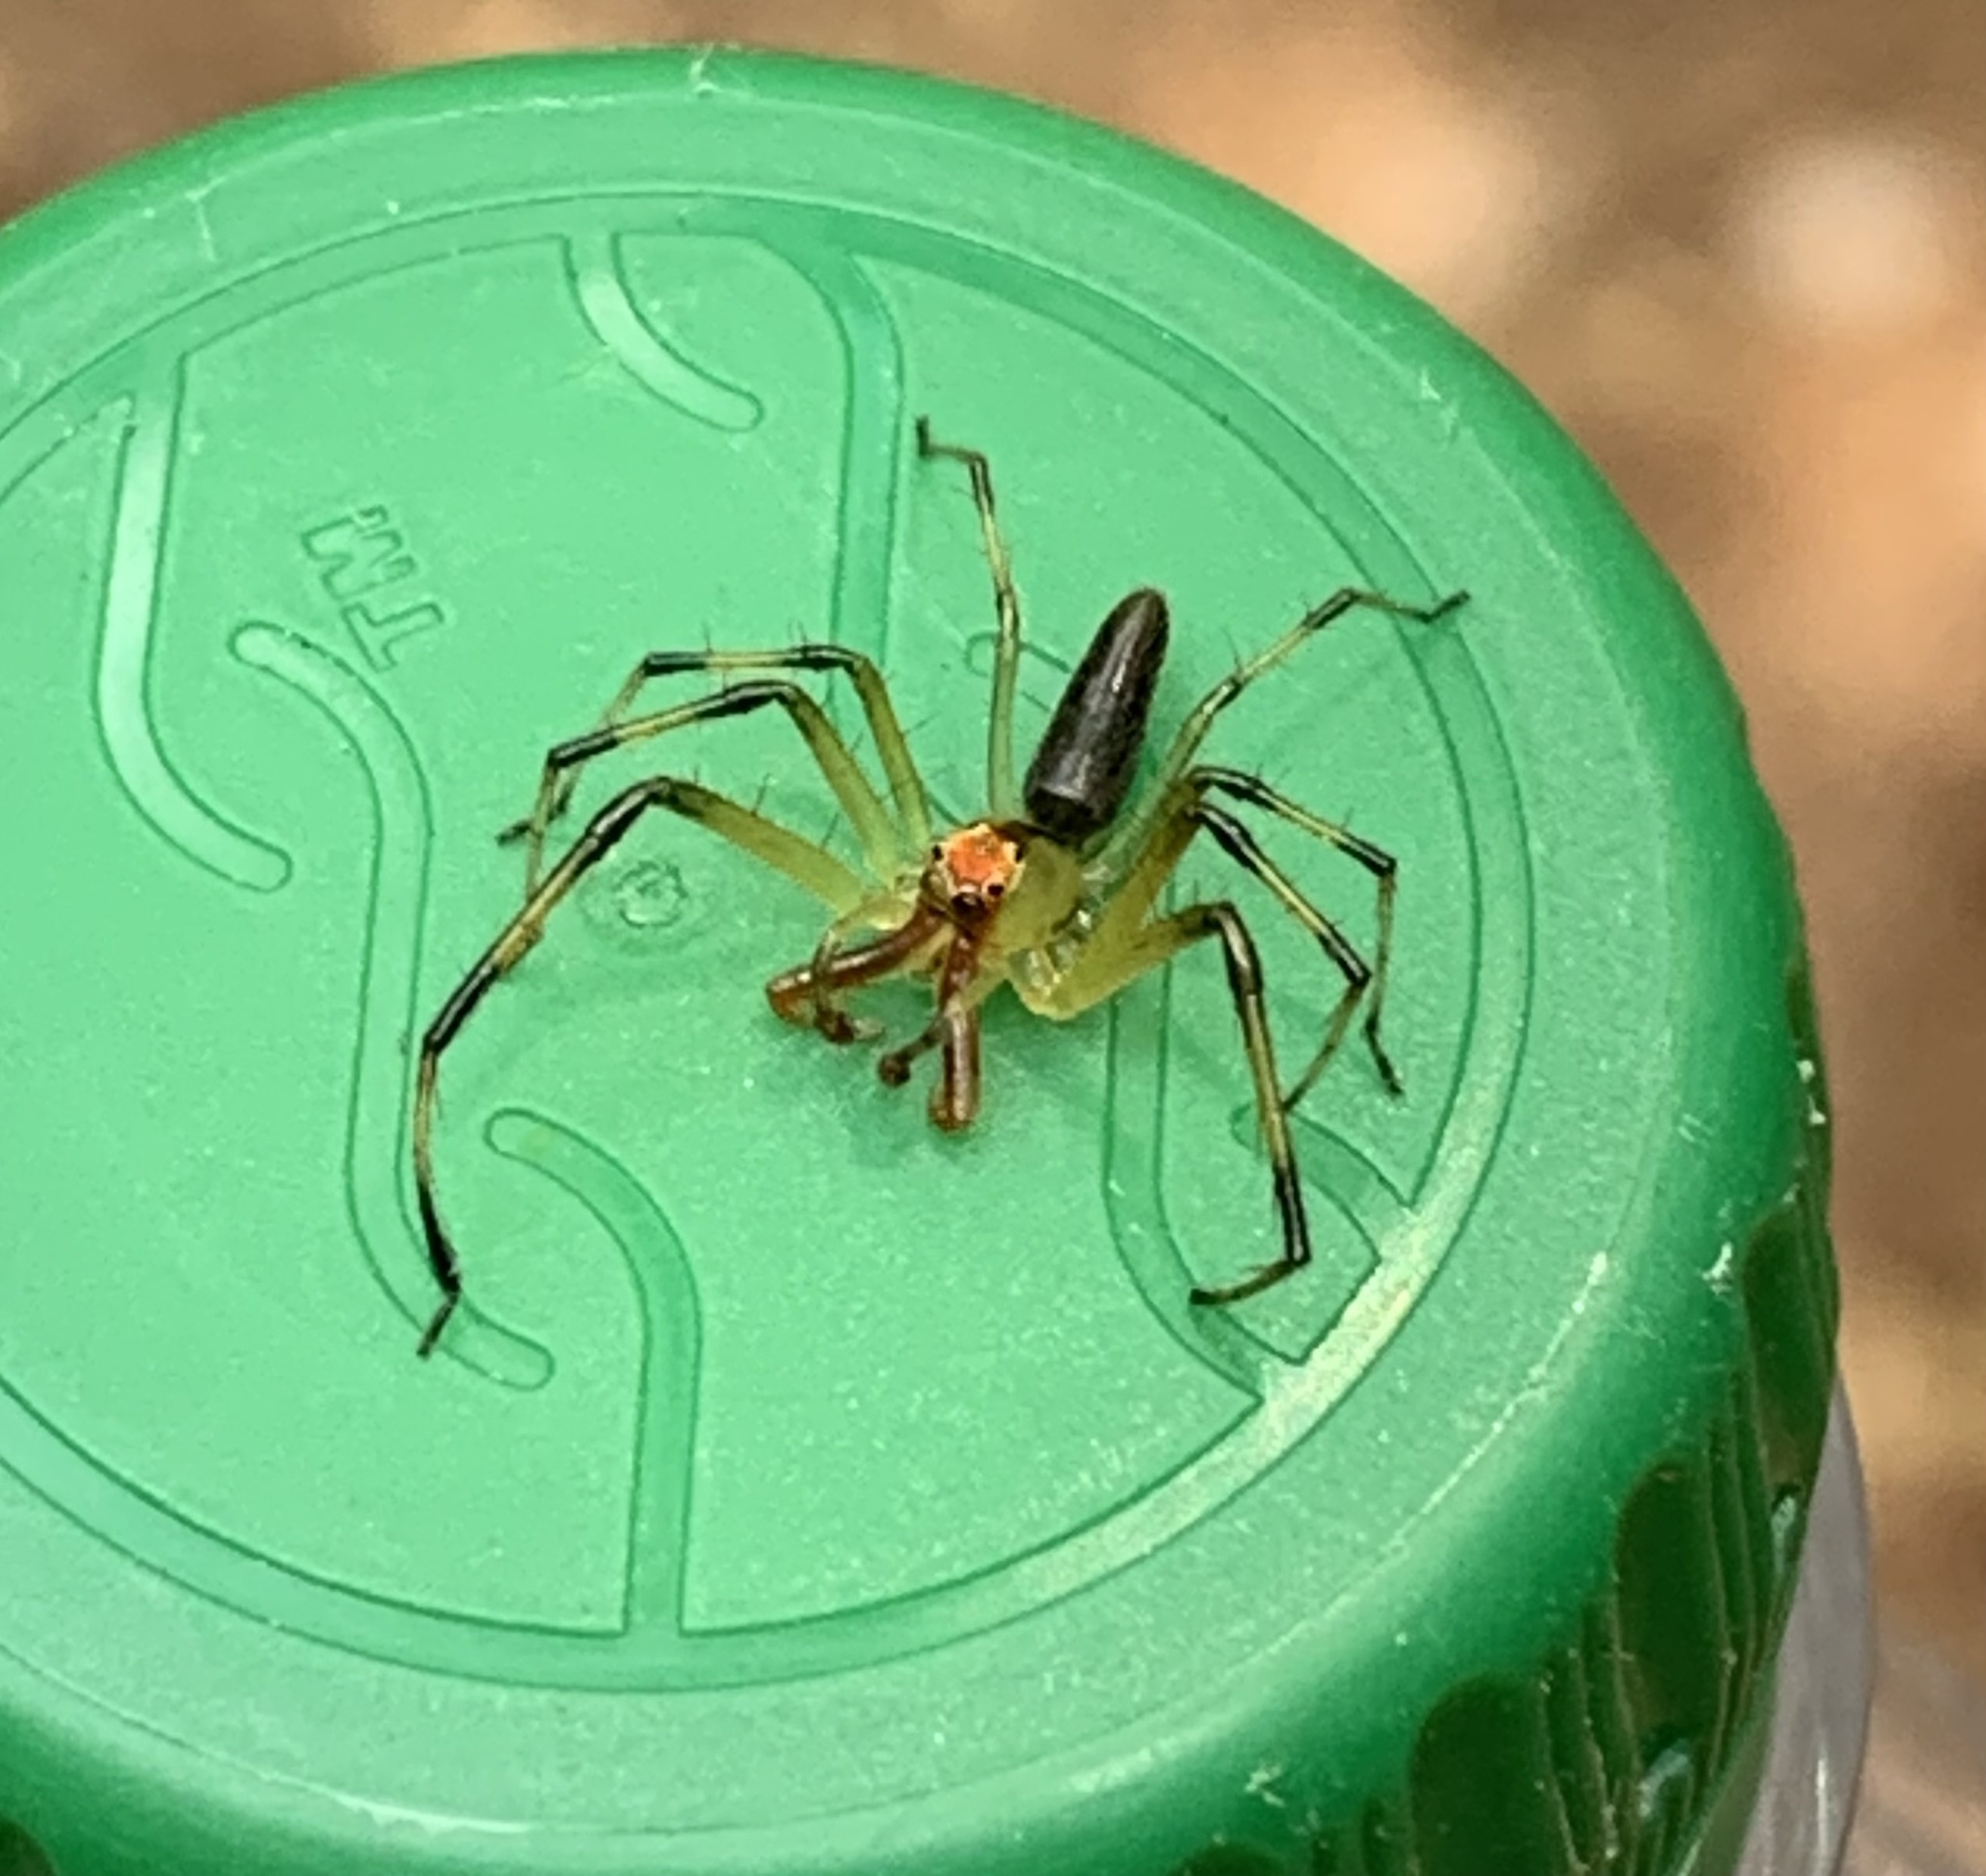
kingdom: Animalia
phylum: Arthropoda
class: Arachnida
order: Araneae
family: Salticidae
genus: Lyssomanes
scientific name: Lyssomanes viridis
